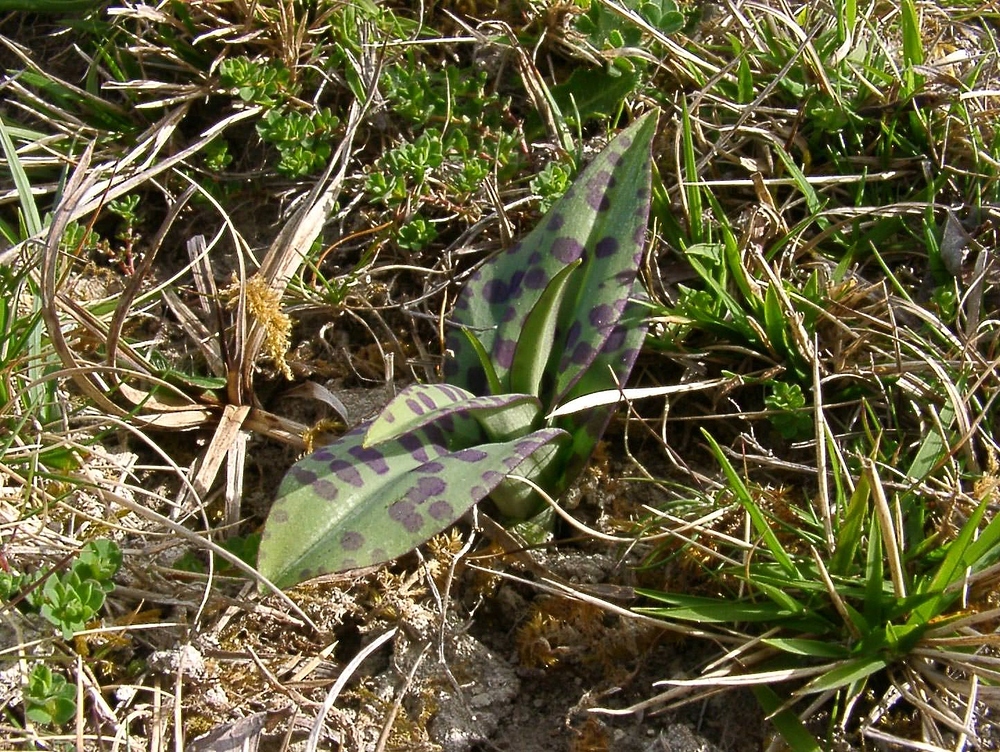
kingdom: Plantae
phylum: Tracheophyta
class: Liliopsida
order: Asparagales
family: Orchidaceae
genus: Dactylorhiza
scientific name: Dactylorhiza maculata
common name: Heath spotted-orchid
